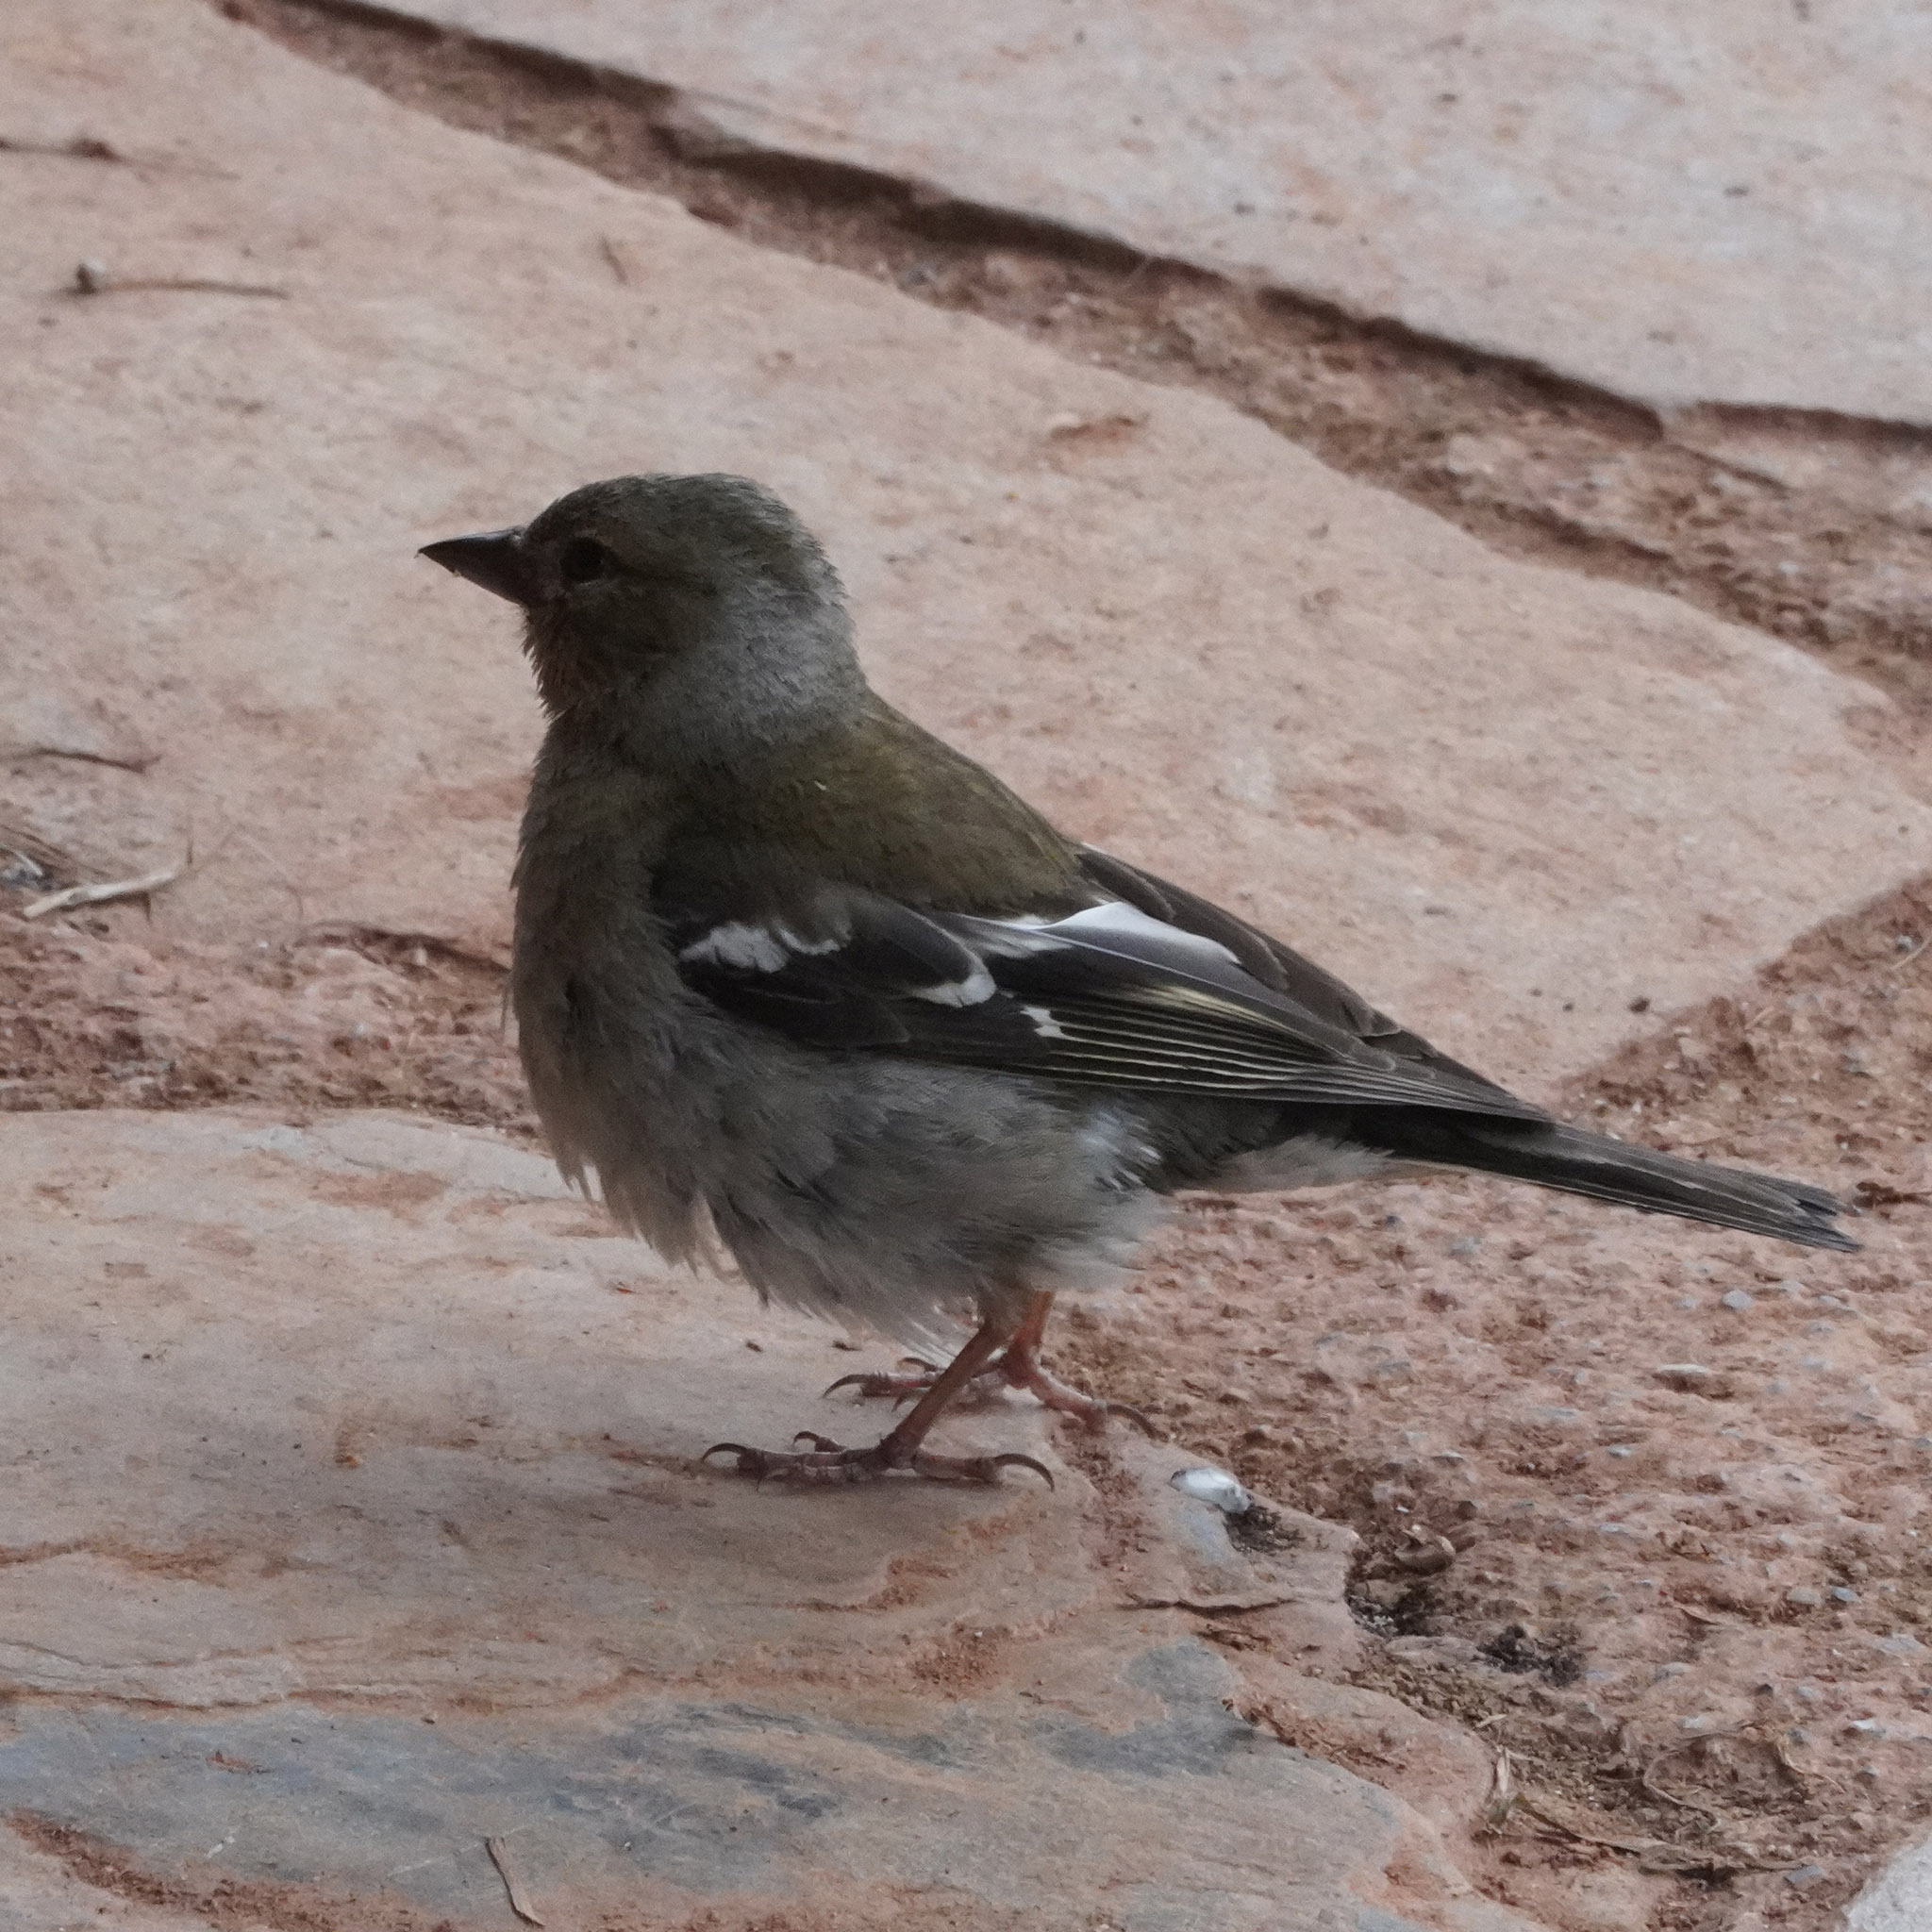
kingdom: Animalia
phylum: Chordata
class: Aves
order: Passeriformes
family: Fringillidae
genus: Fringilla
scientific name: Fringilla coelebs
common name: Common chaffinch
